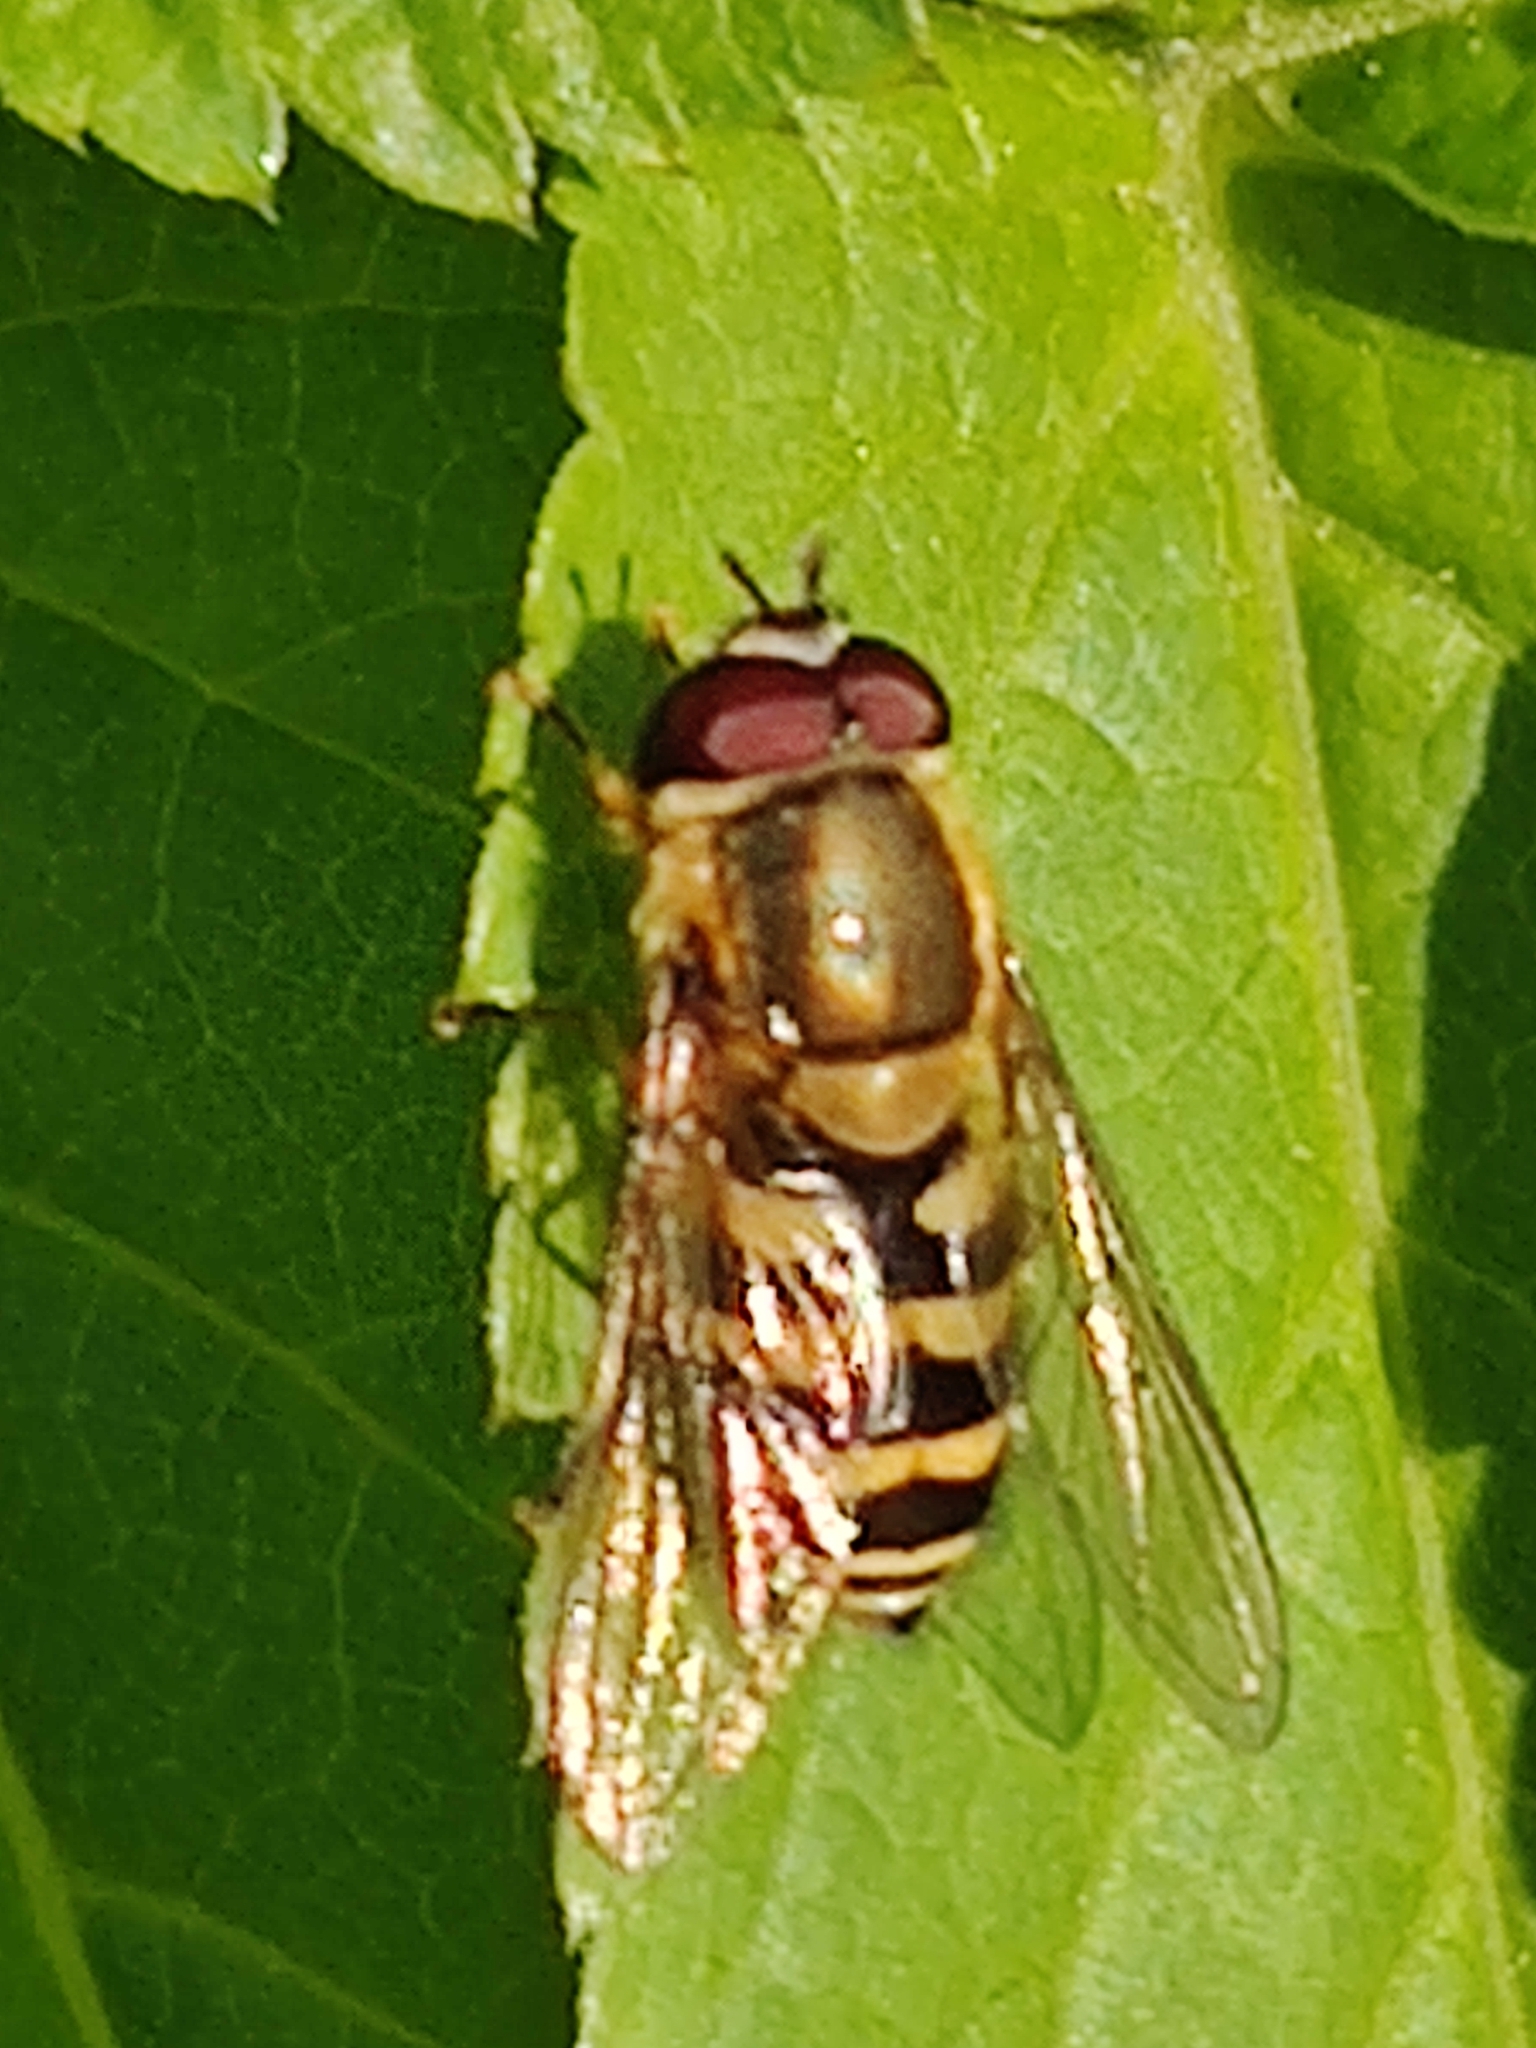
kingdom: Animalia
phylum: Arthropoda
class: Insecta
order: Diptera
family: Syrphidae
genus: Syrphus
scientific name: Syrphus
